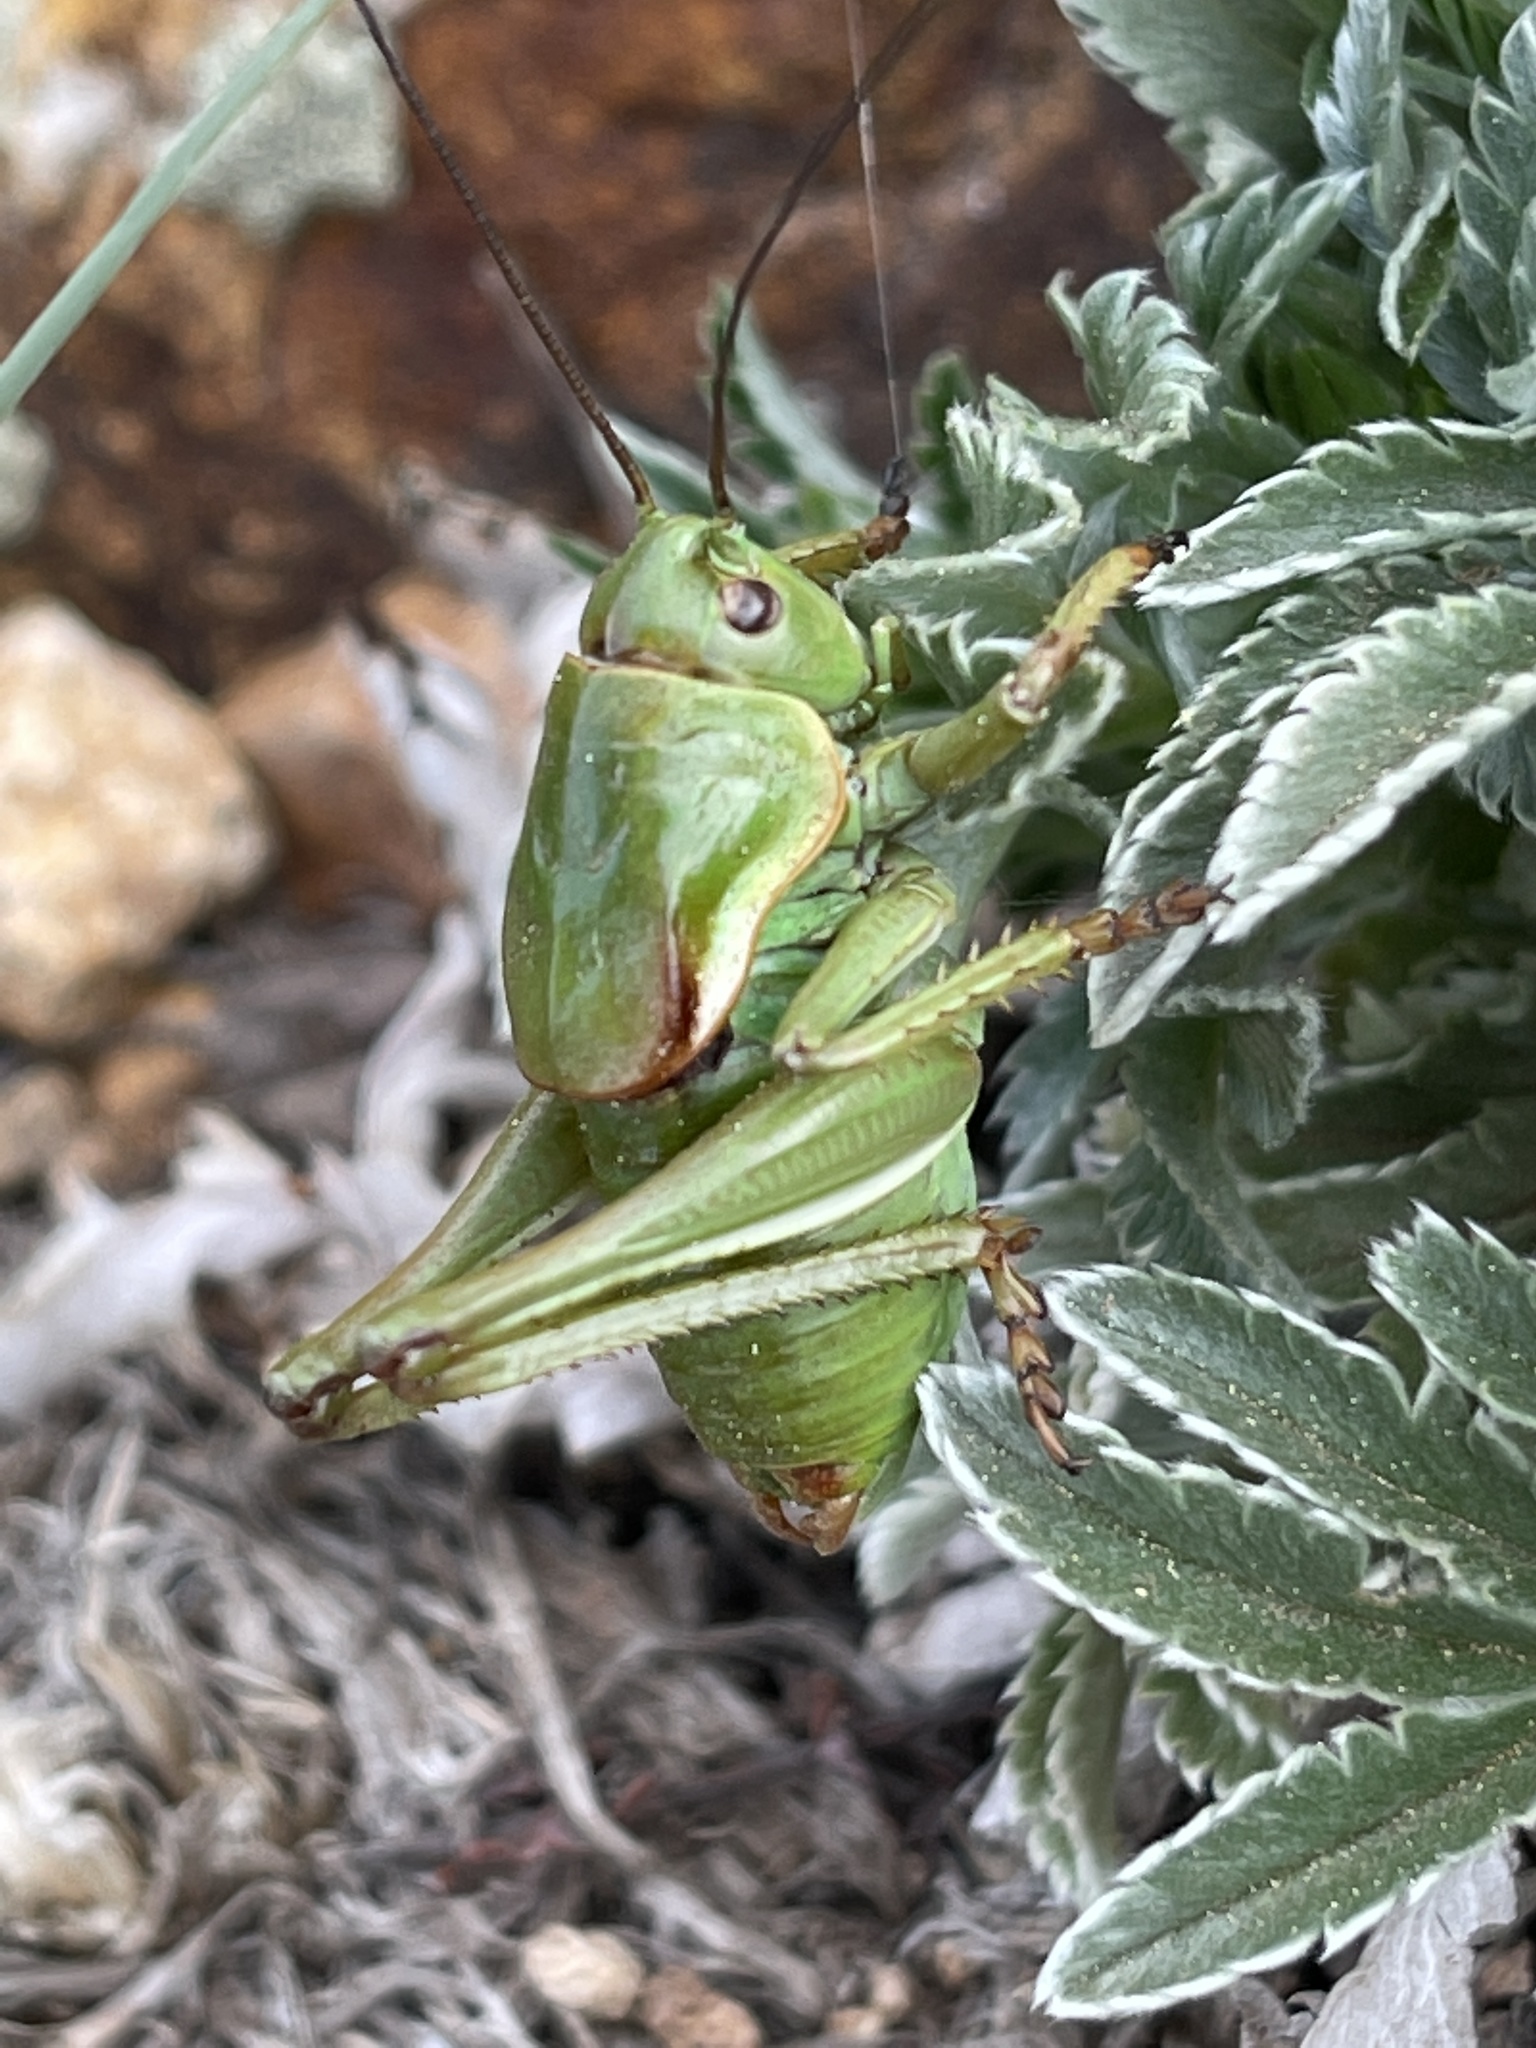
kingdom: Animalia
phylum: Arthropoda
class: Insecta
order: Orthoptera
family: Tettigoniidae
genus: Anabrus
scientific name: Anabrus simplex
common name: Mormon cricket
